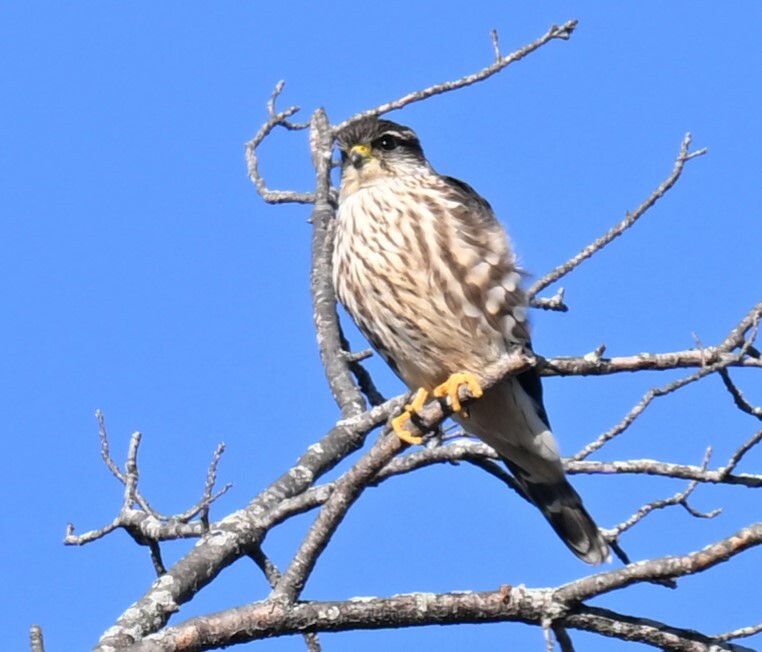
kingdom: Animalia
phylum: Chordata
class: Aves
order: Falconiformes
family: Falconidae
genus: Falco
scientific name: Falco columbarius
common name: Merlin
